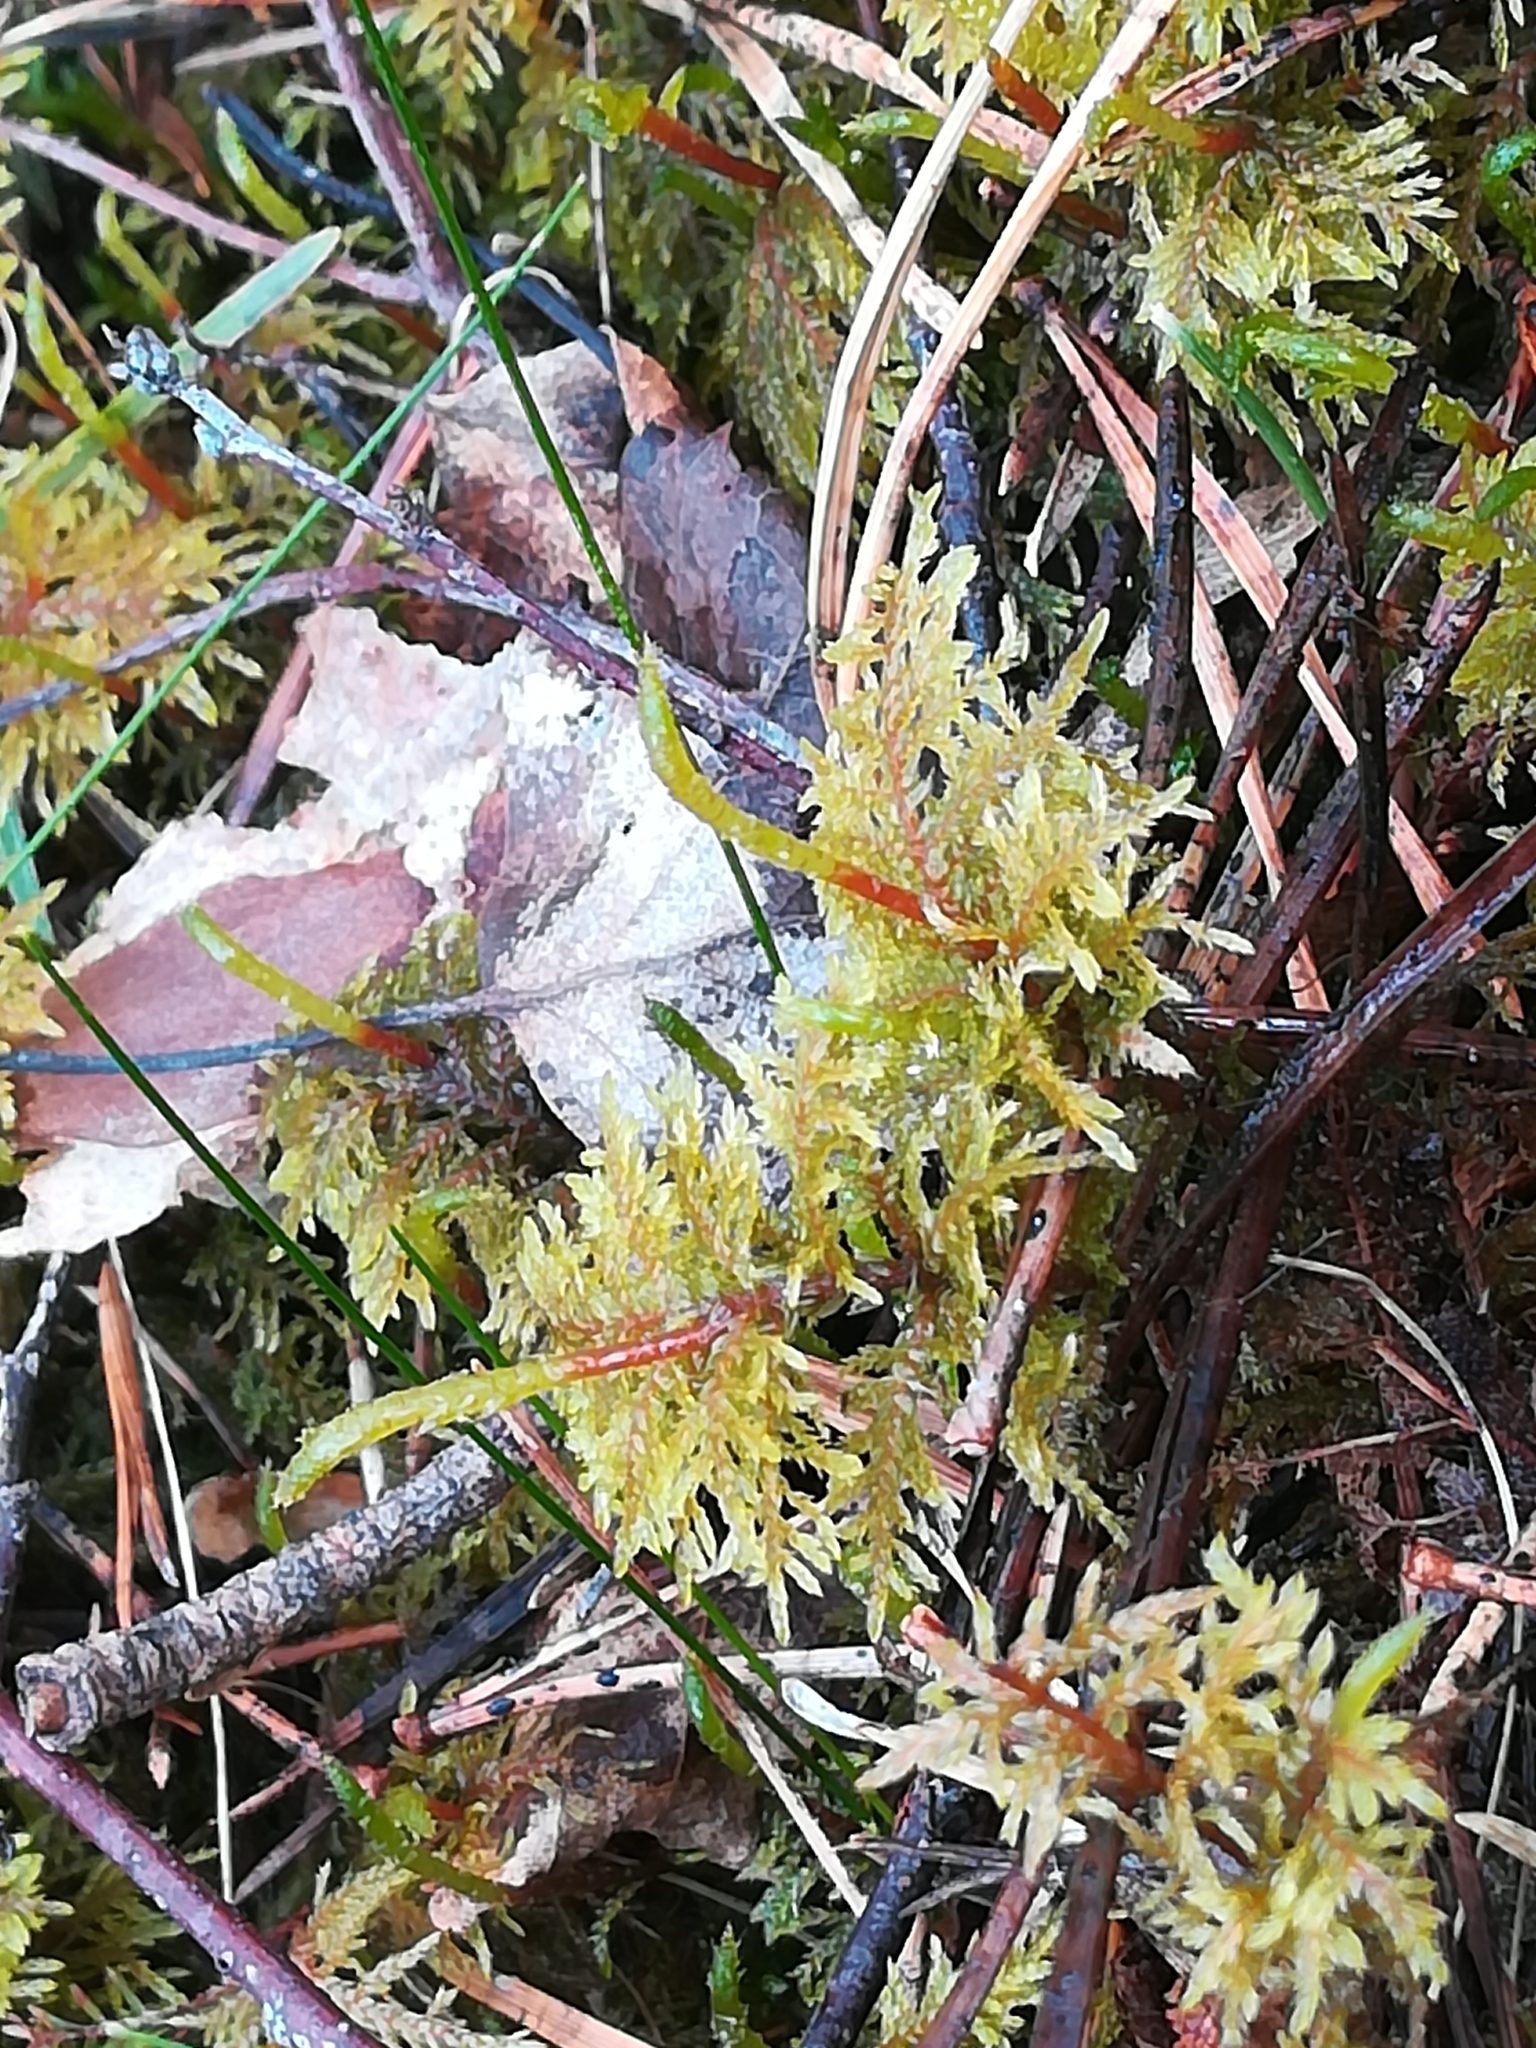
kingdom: Plantae
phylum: Bryophyta
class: Bryopsida
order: Hypnales
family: Hylocomiaceae
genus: Hylocomium
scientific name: Hylocomium splendens
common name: Stairstep moss
